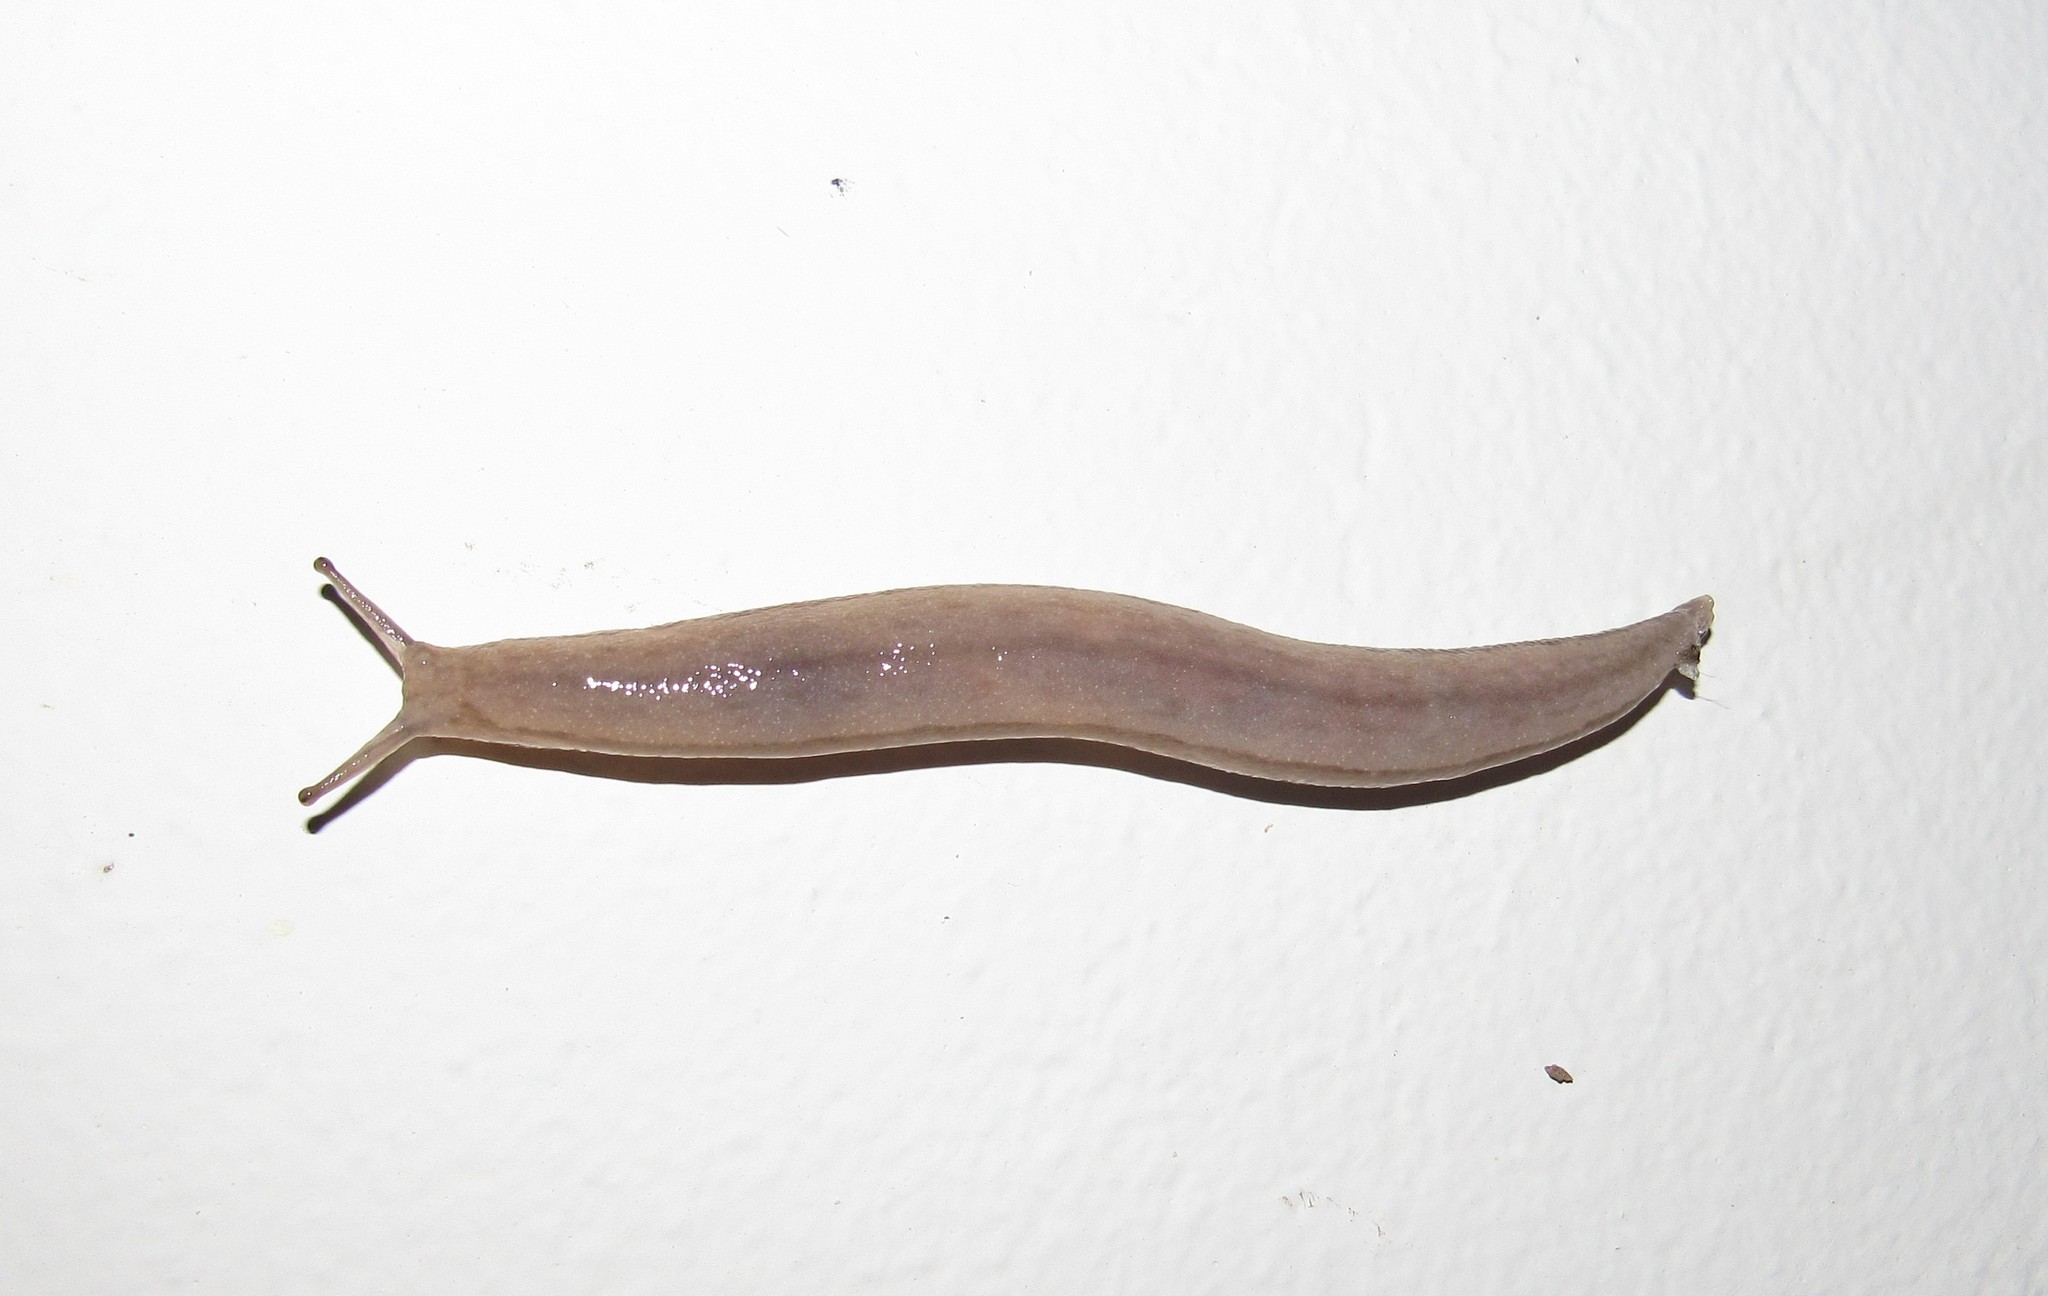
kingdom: Animalia
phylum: Mollusca
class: Gastropoda
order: Stylommatophora
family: Philomycidae
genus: Meghimatium
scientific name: Meghimatium pictum
